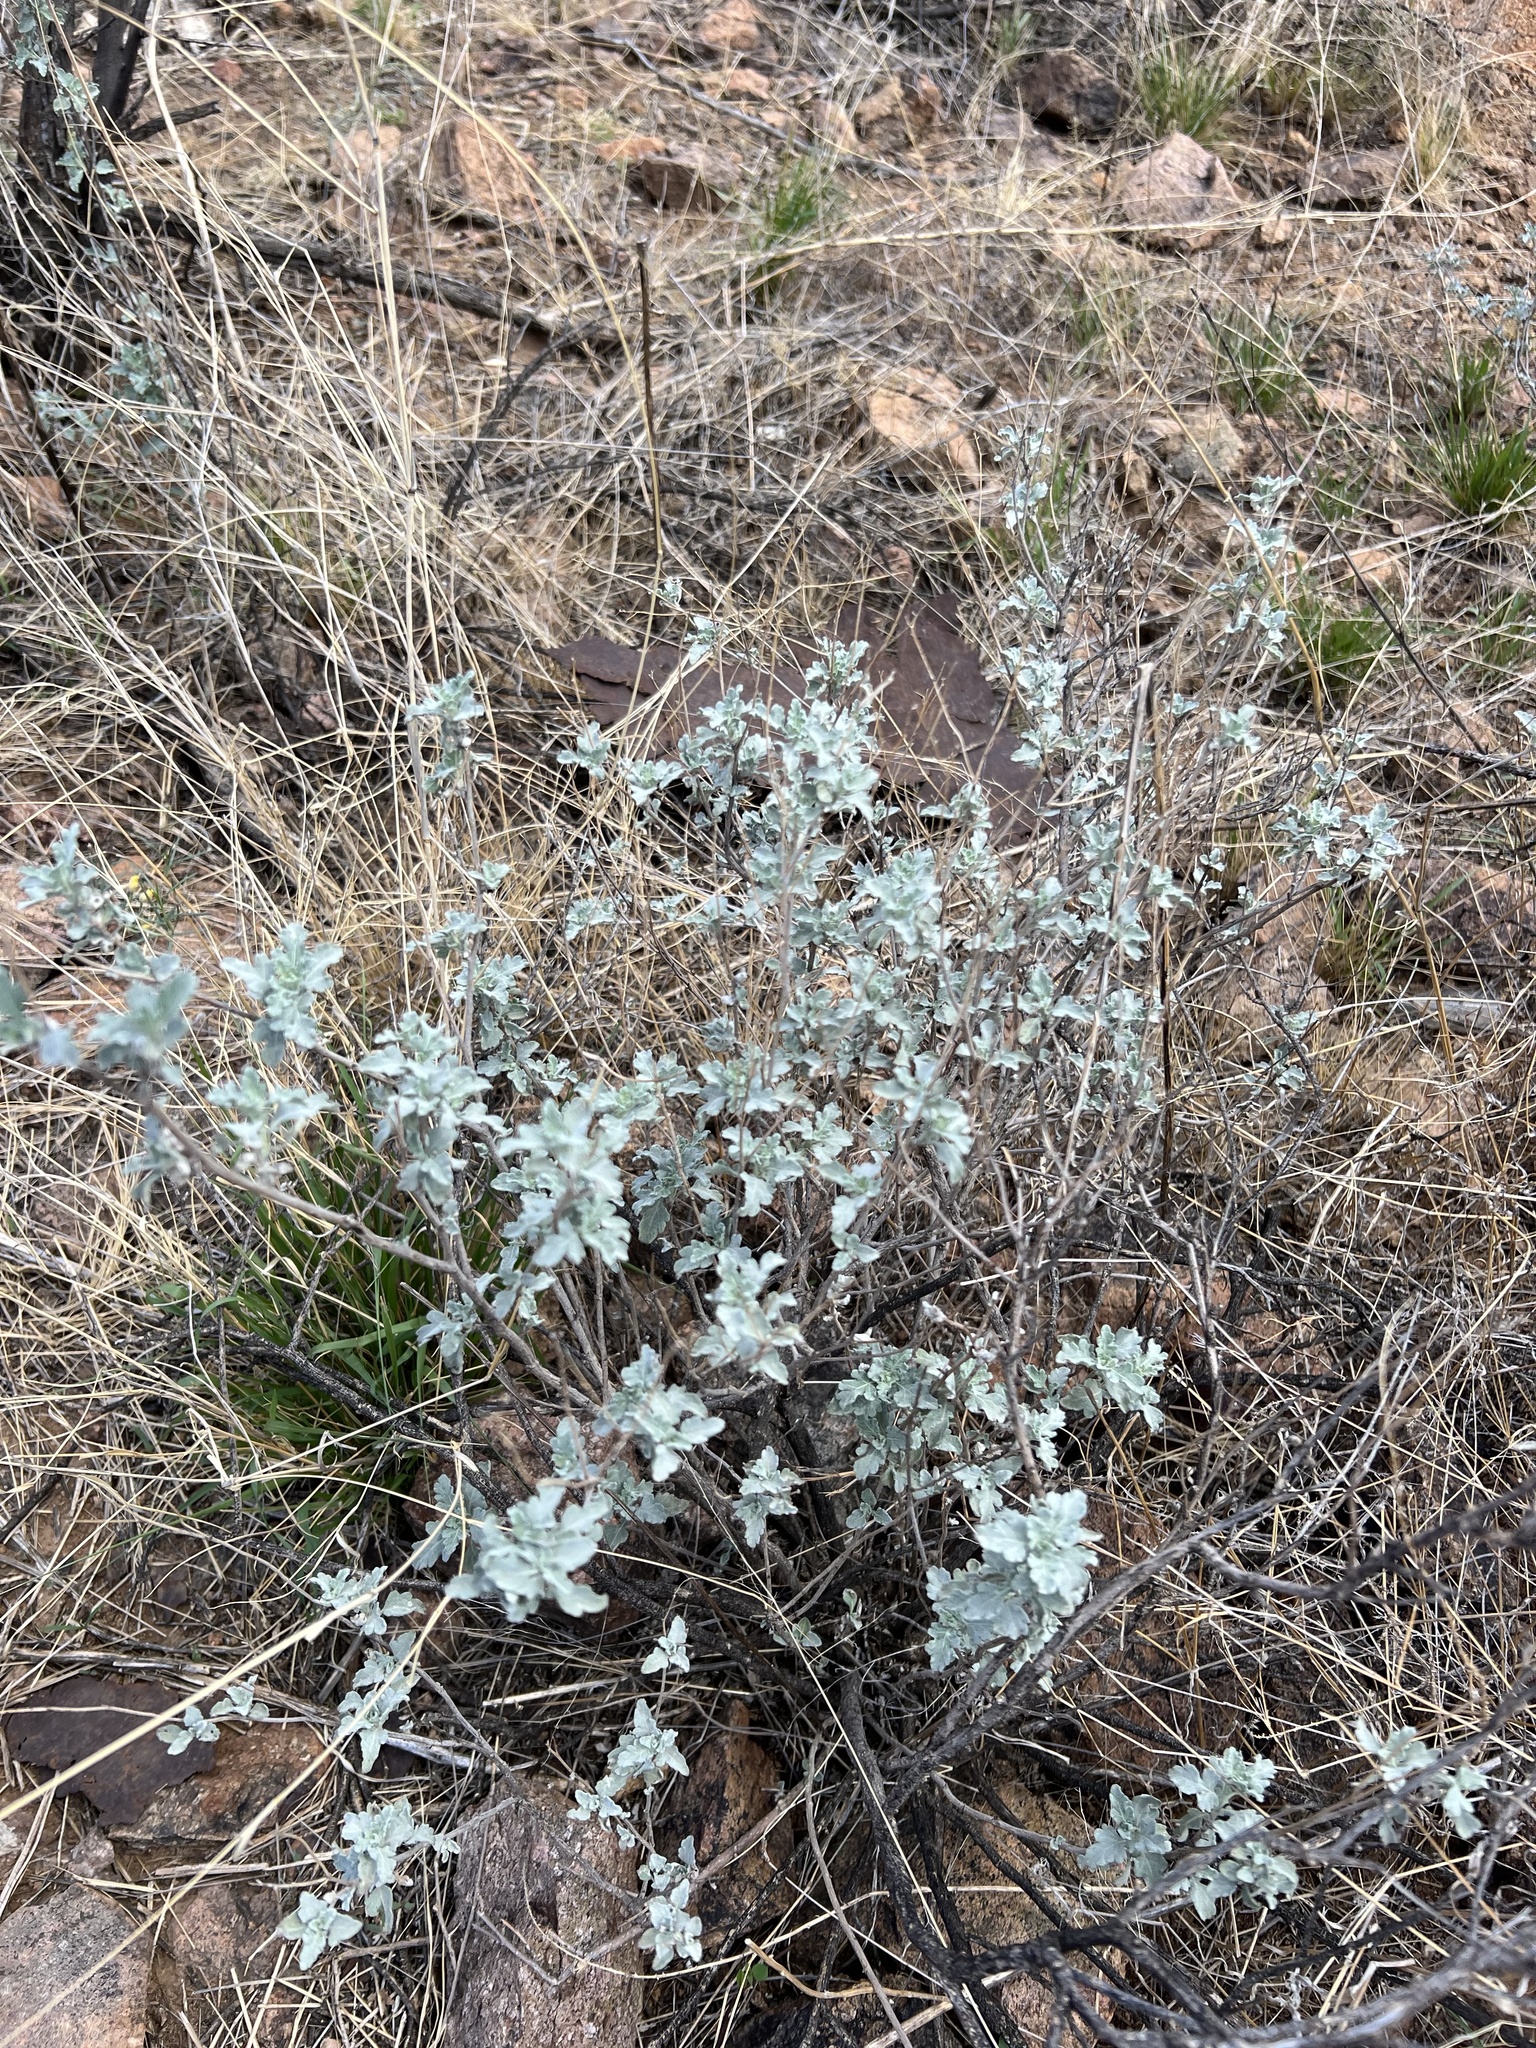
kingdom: Plantae
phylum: Tracheophyta
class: Magnoliopsida
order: Asterales
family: Asteraceae
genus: Parthenium
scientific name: Parthenium incanum
